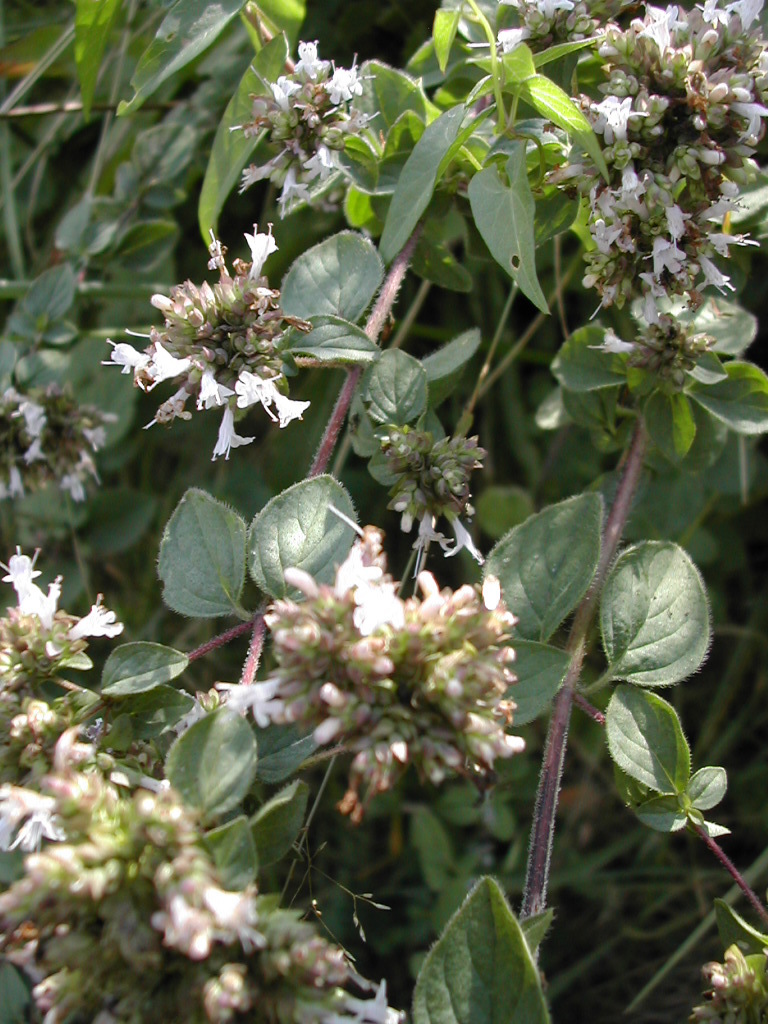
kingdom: Plantae
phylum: Tracheophyta
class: Magnoliopsida
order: Lamiales
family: Lamiaceae
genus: Origanum
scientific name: Origanum vulgare
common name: Wild marjoram
